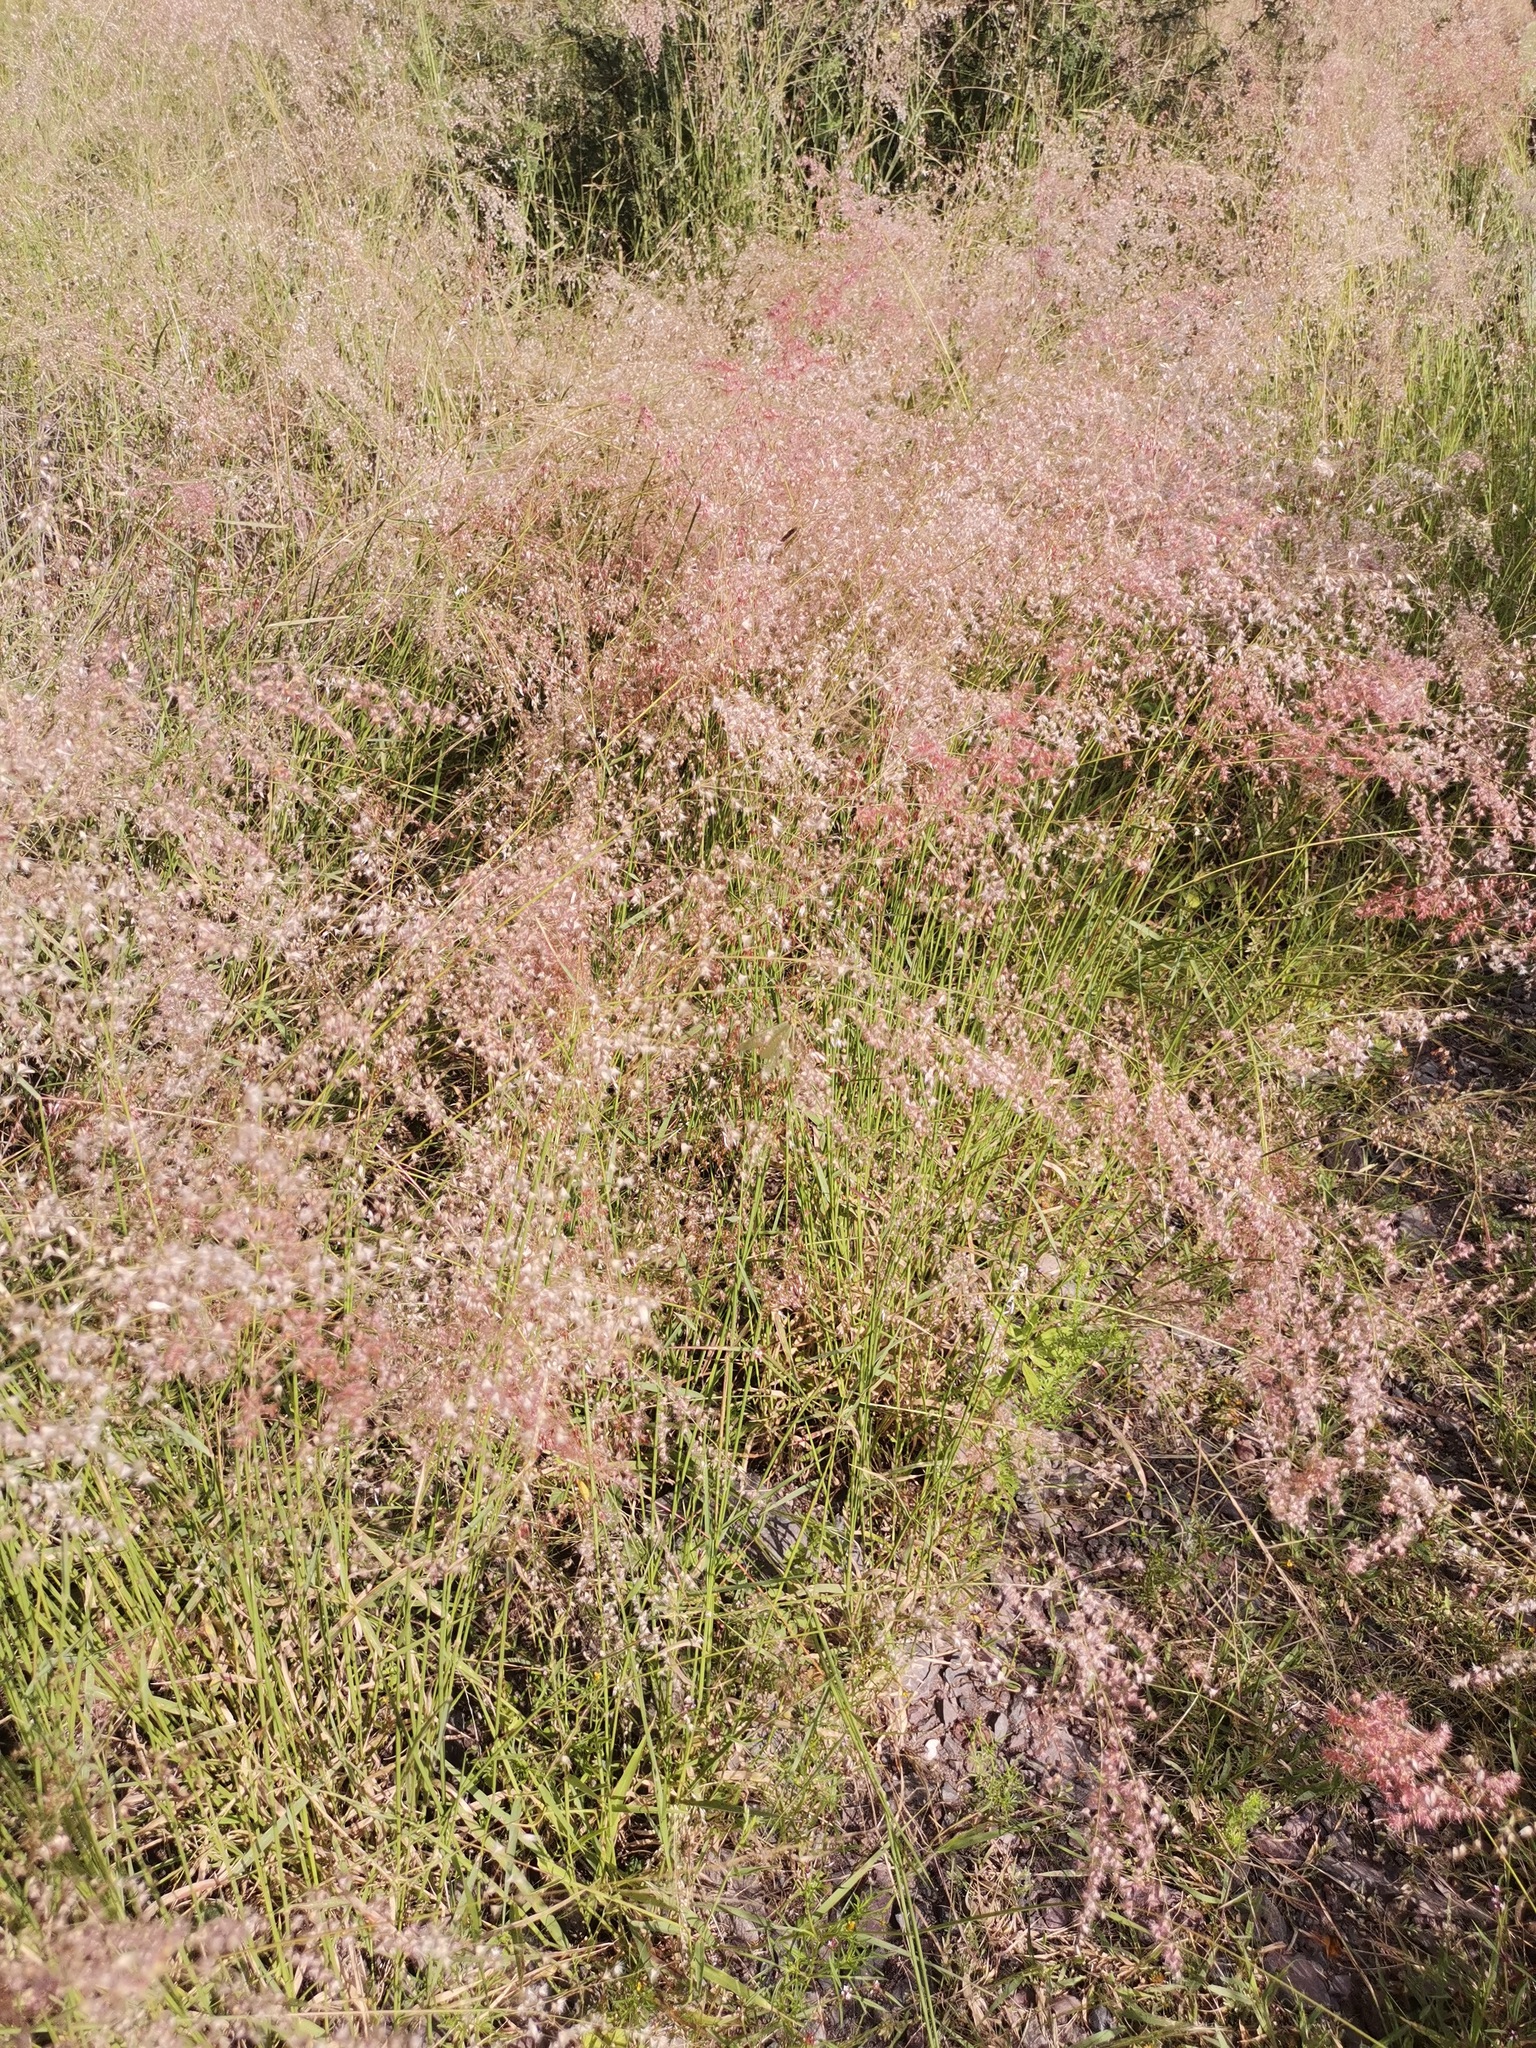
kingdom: Plantae
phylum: Tracheophyta
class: Liliopsida
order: Poales
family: Poaceae
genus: Melinis
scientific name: Melinis repens
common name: Rose natal grass
